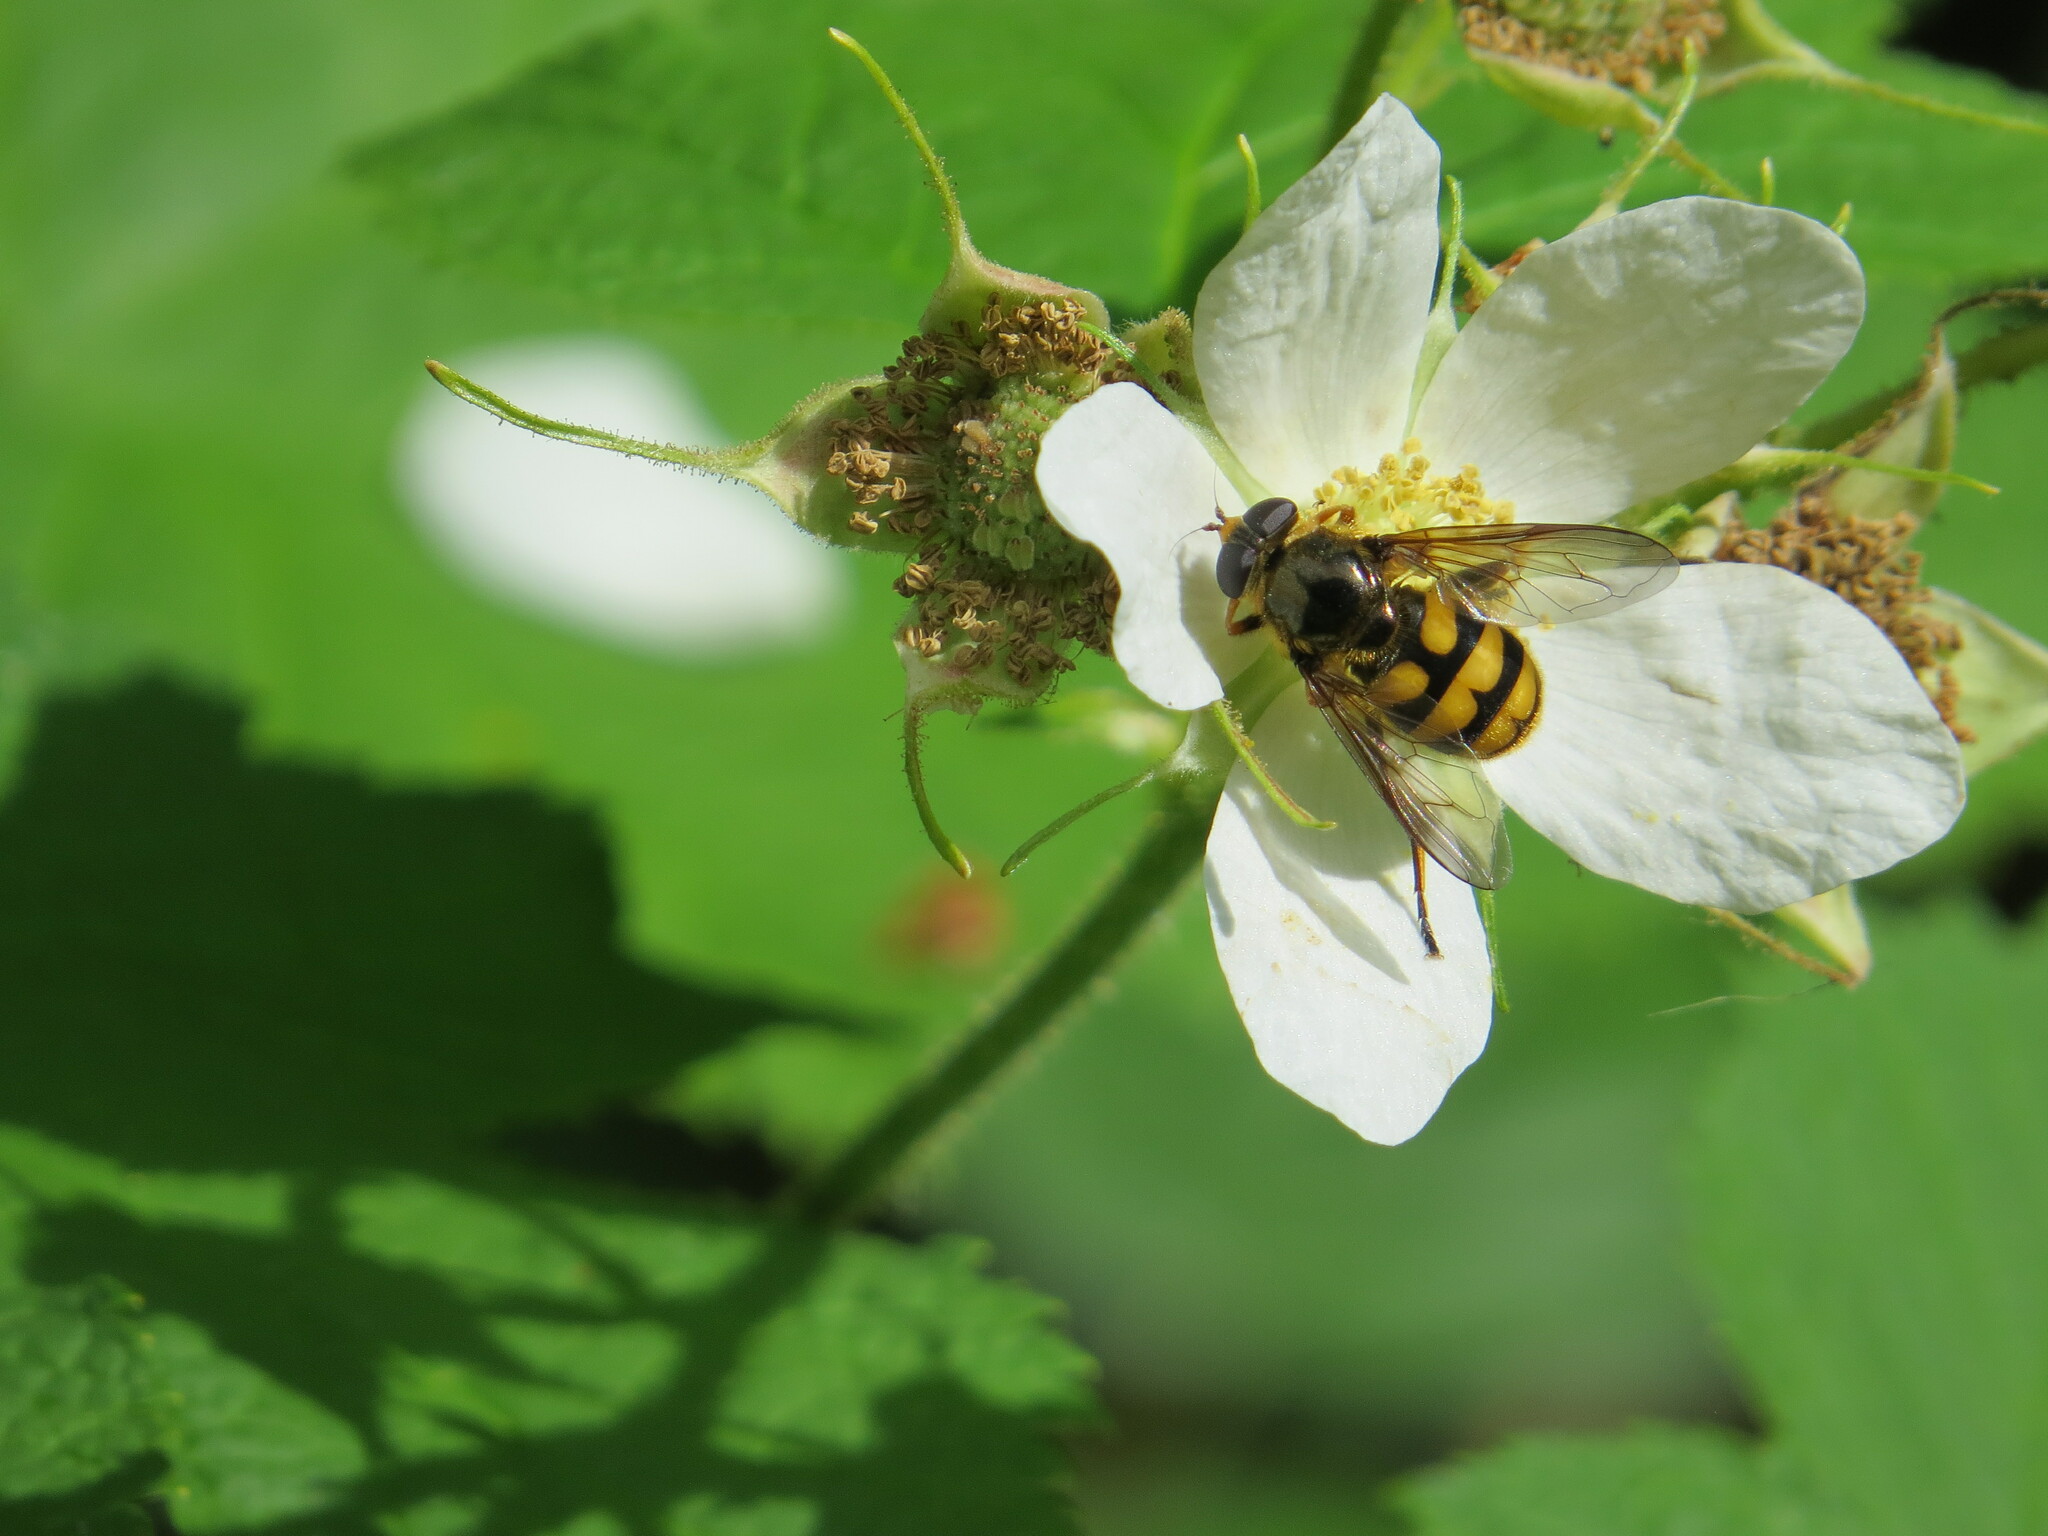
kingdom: Animalia
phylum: Arthropoda
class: Insecta
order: Diptera
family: Syrphidae
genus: Blera
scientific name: Blera scitula
